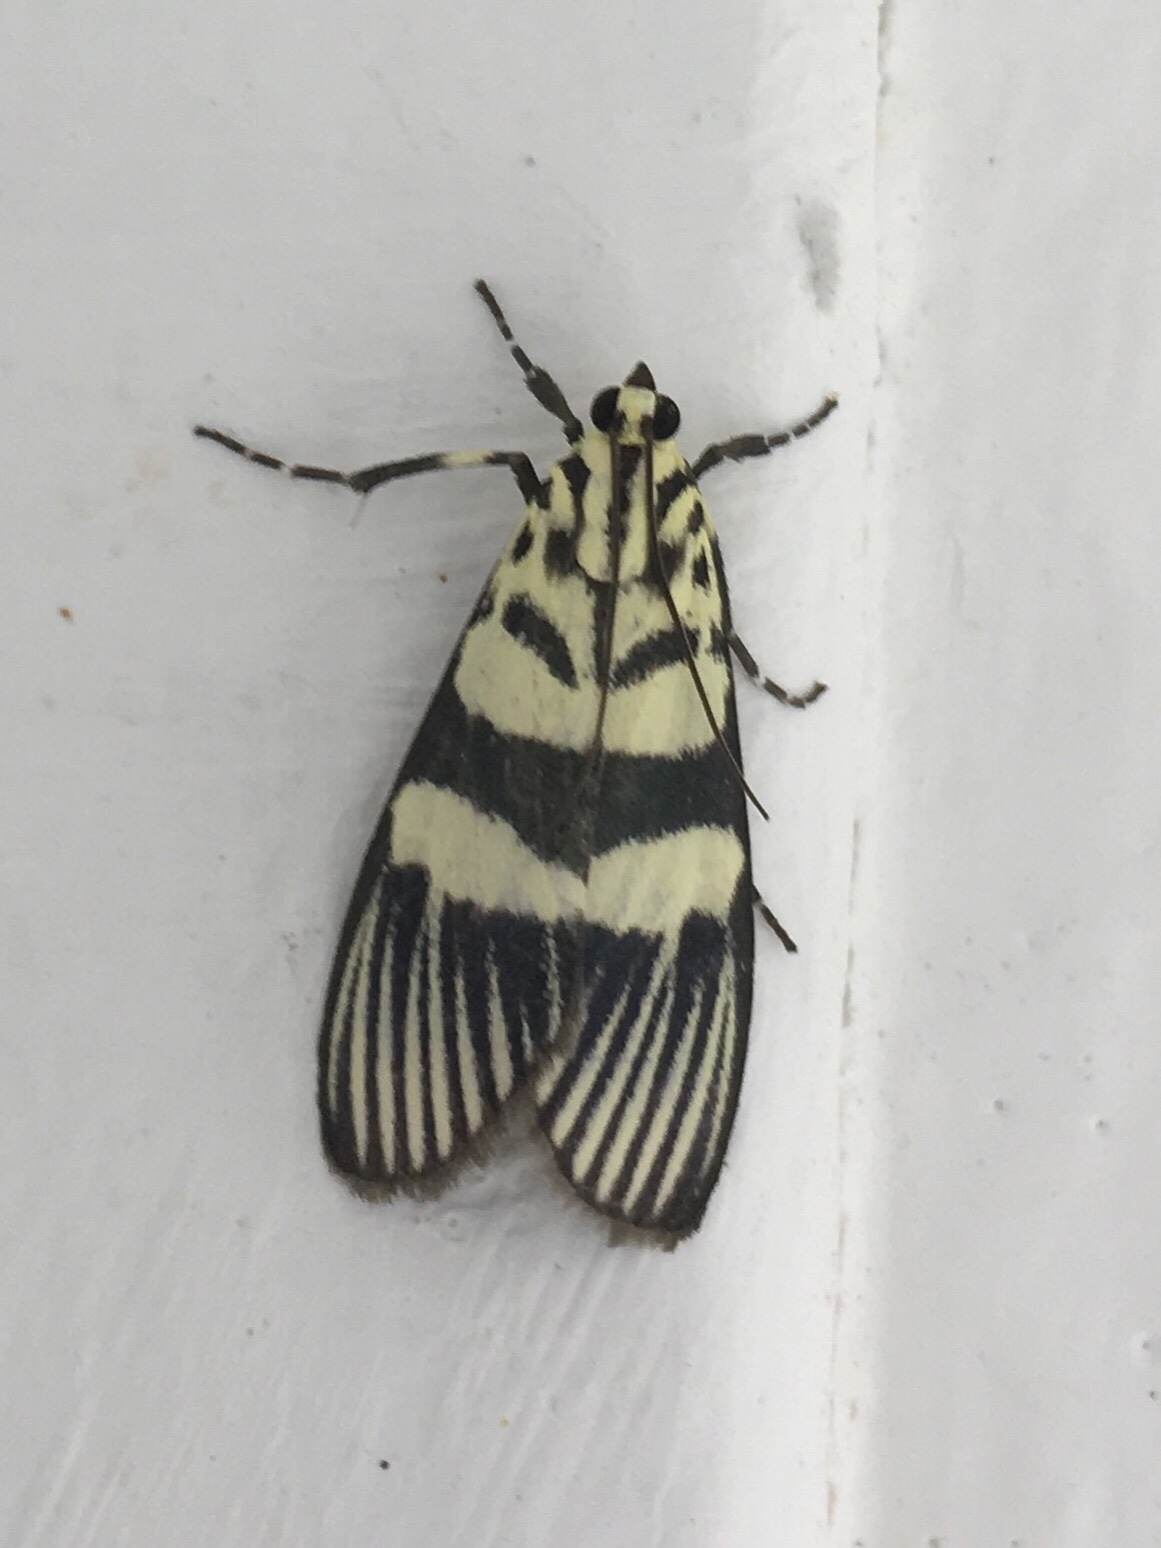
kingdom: Animalia
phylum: Arthropoda
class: Insecta
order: Lepidoptera
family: Crambidae
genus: Heortia
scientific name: Heortia vitessoides
